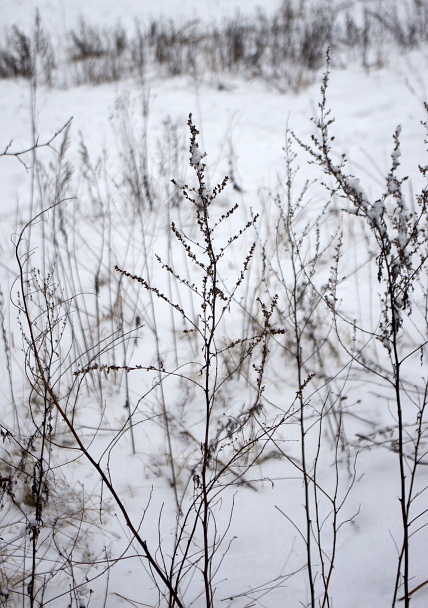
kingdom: Plantae
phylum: Tracheophyta
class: Magnoliopsida
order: Asterales
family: Asteraceae
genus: Artemisia
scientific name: Artemisia vulgaris
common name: Mugwort
